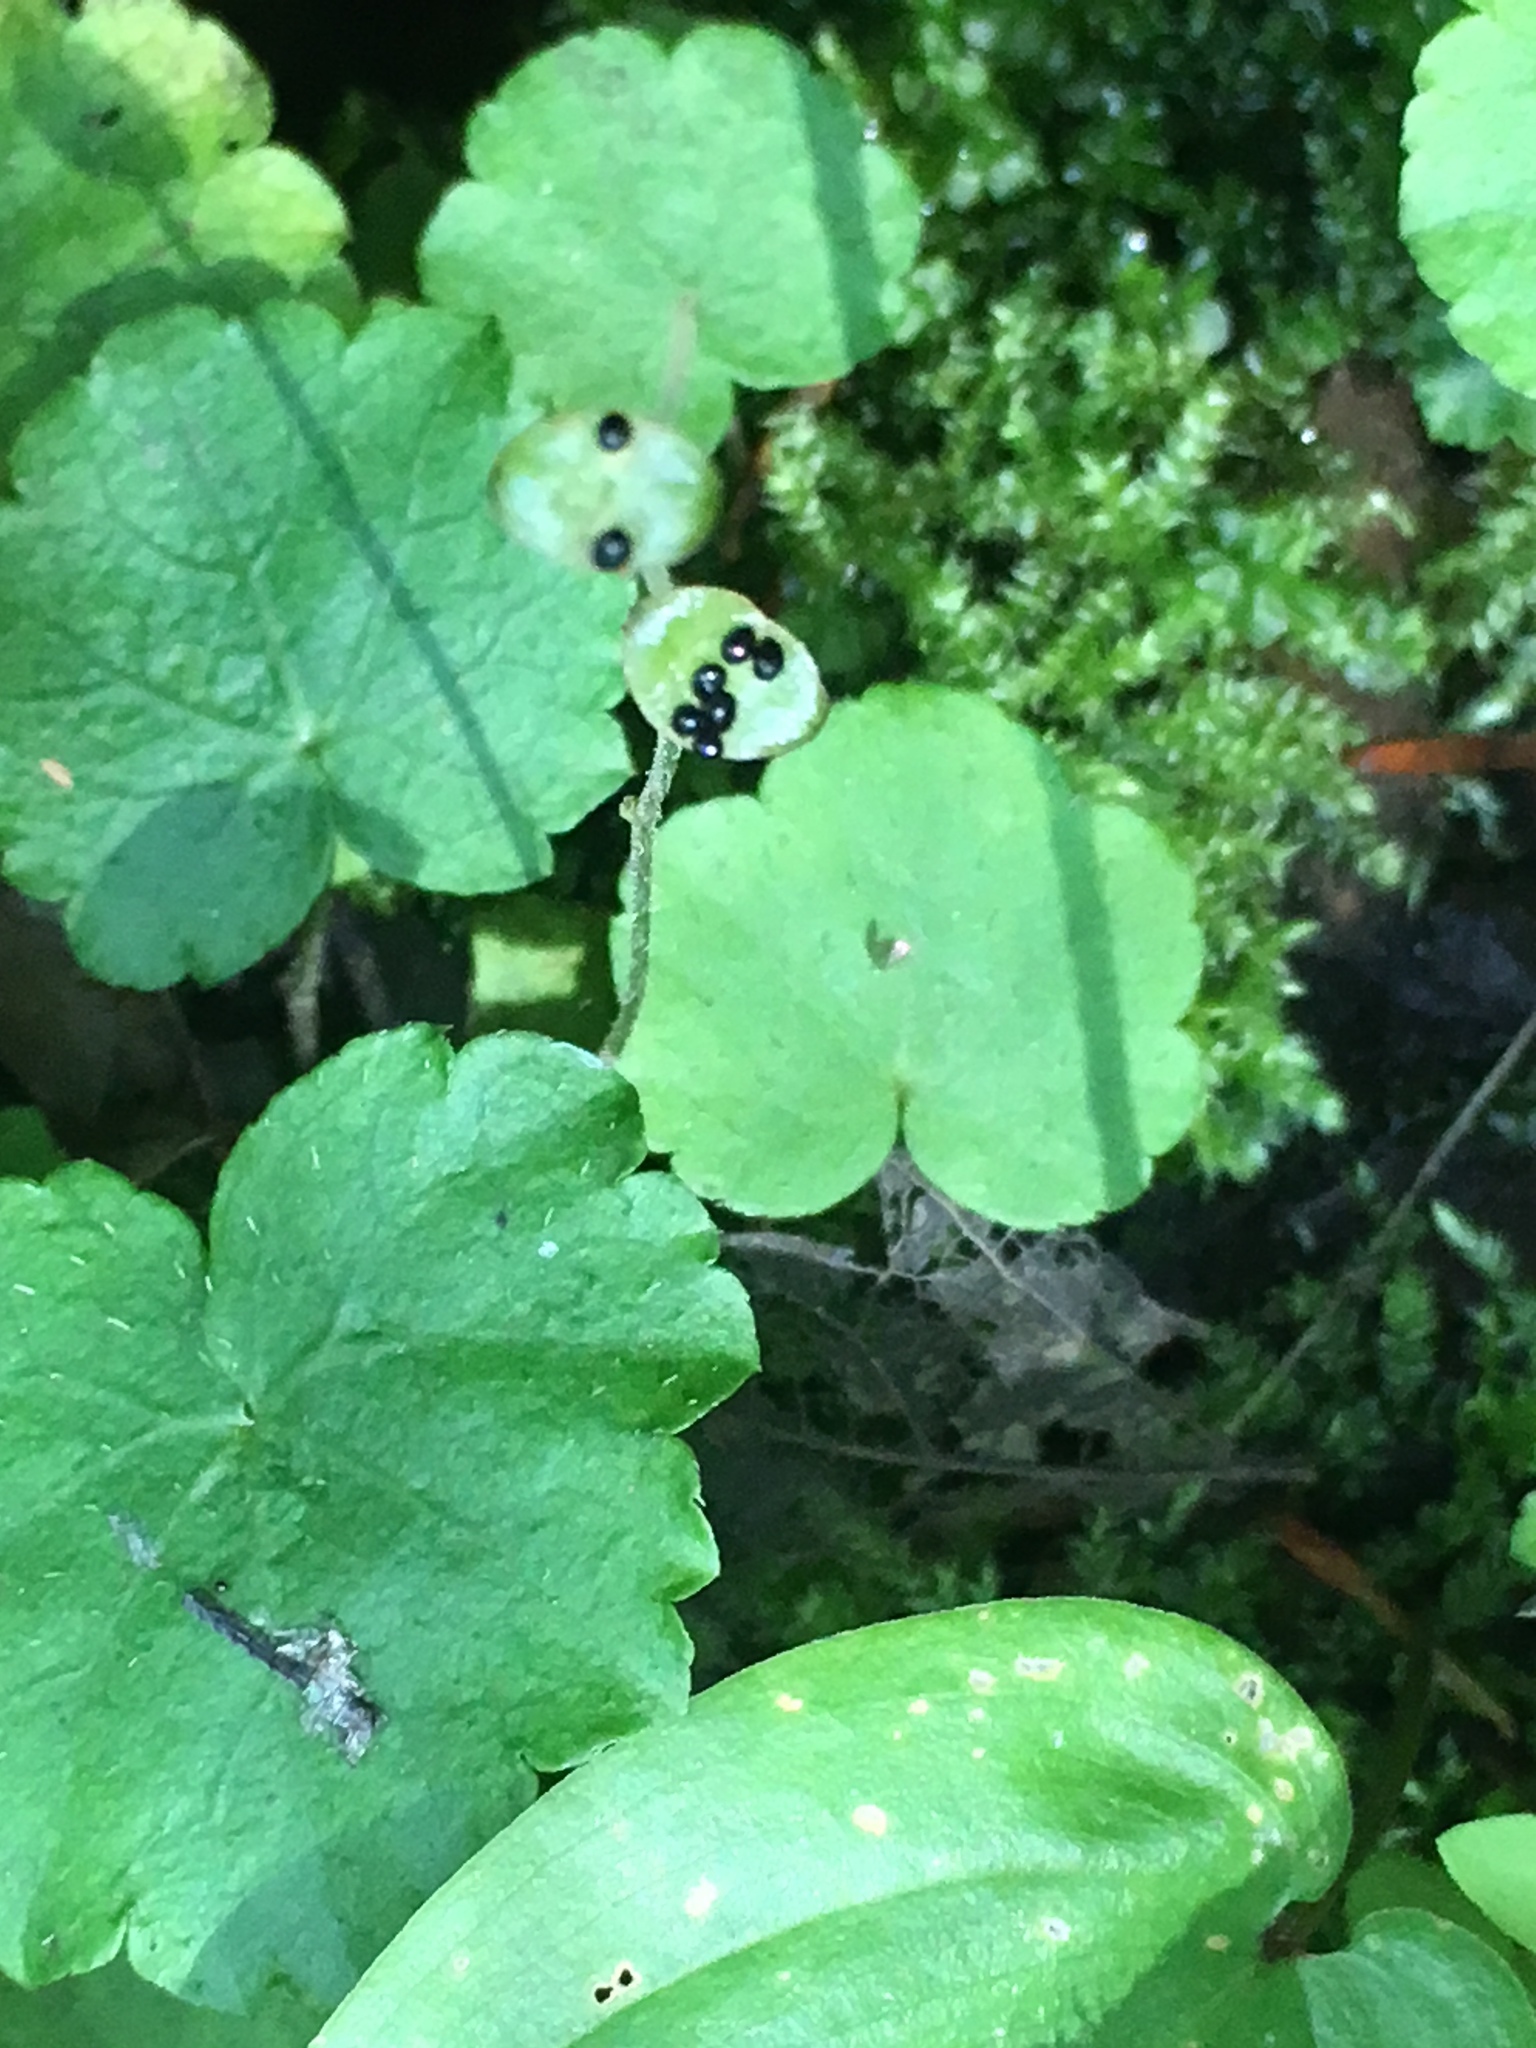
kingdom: Plantae
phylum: Tracheophyta
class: Magnoliopsida
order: Saxifragales
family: Saxifragaceae
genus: Mitella
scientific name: Mitella nuda
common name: Bare-stemmed bishop's-cap
